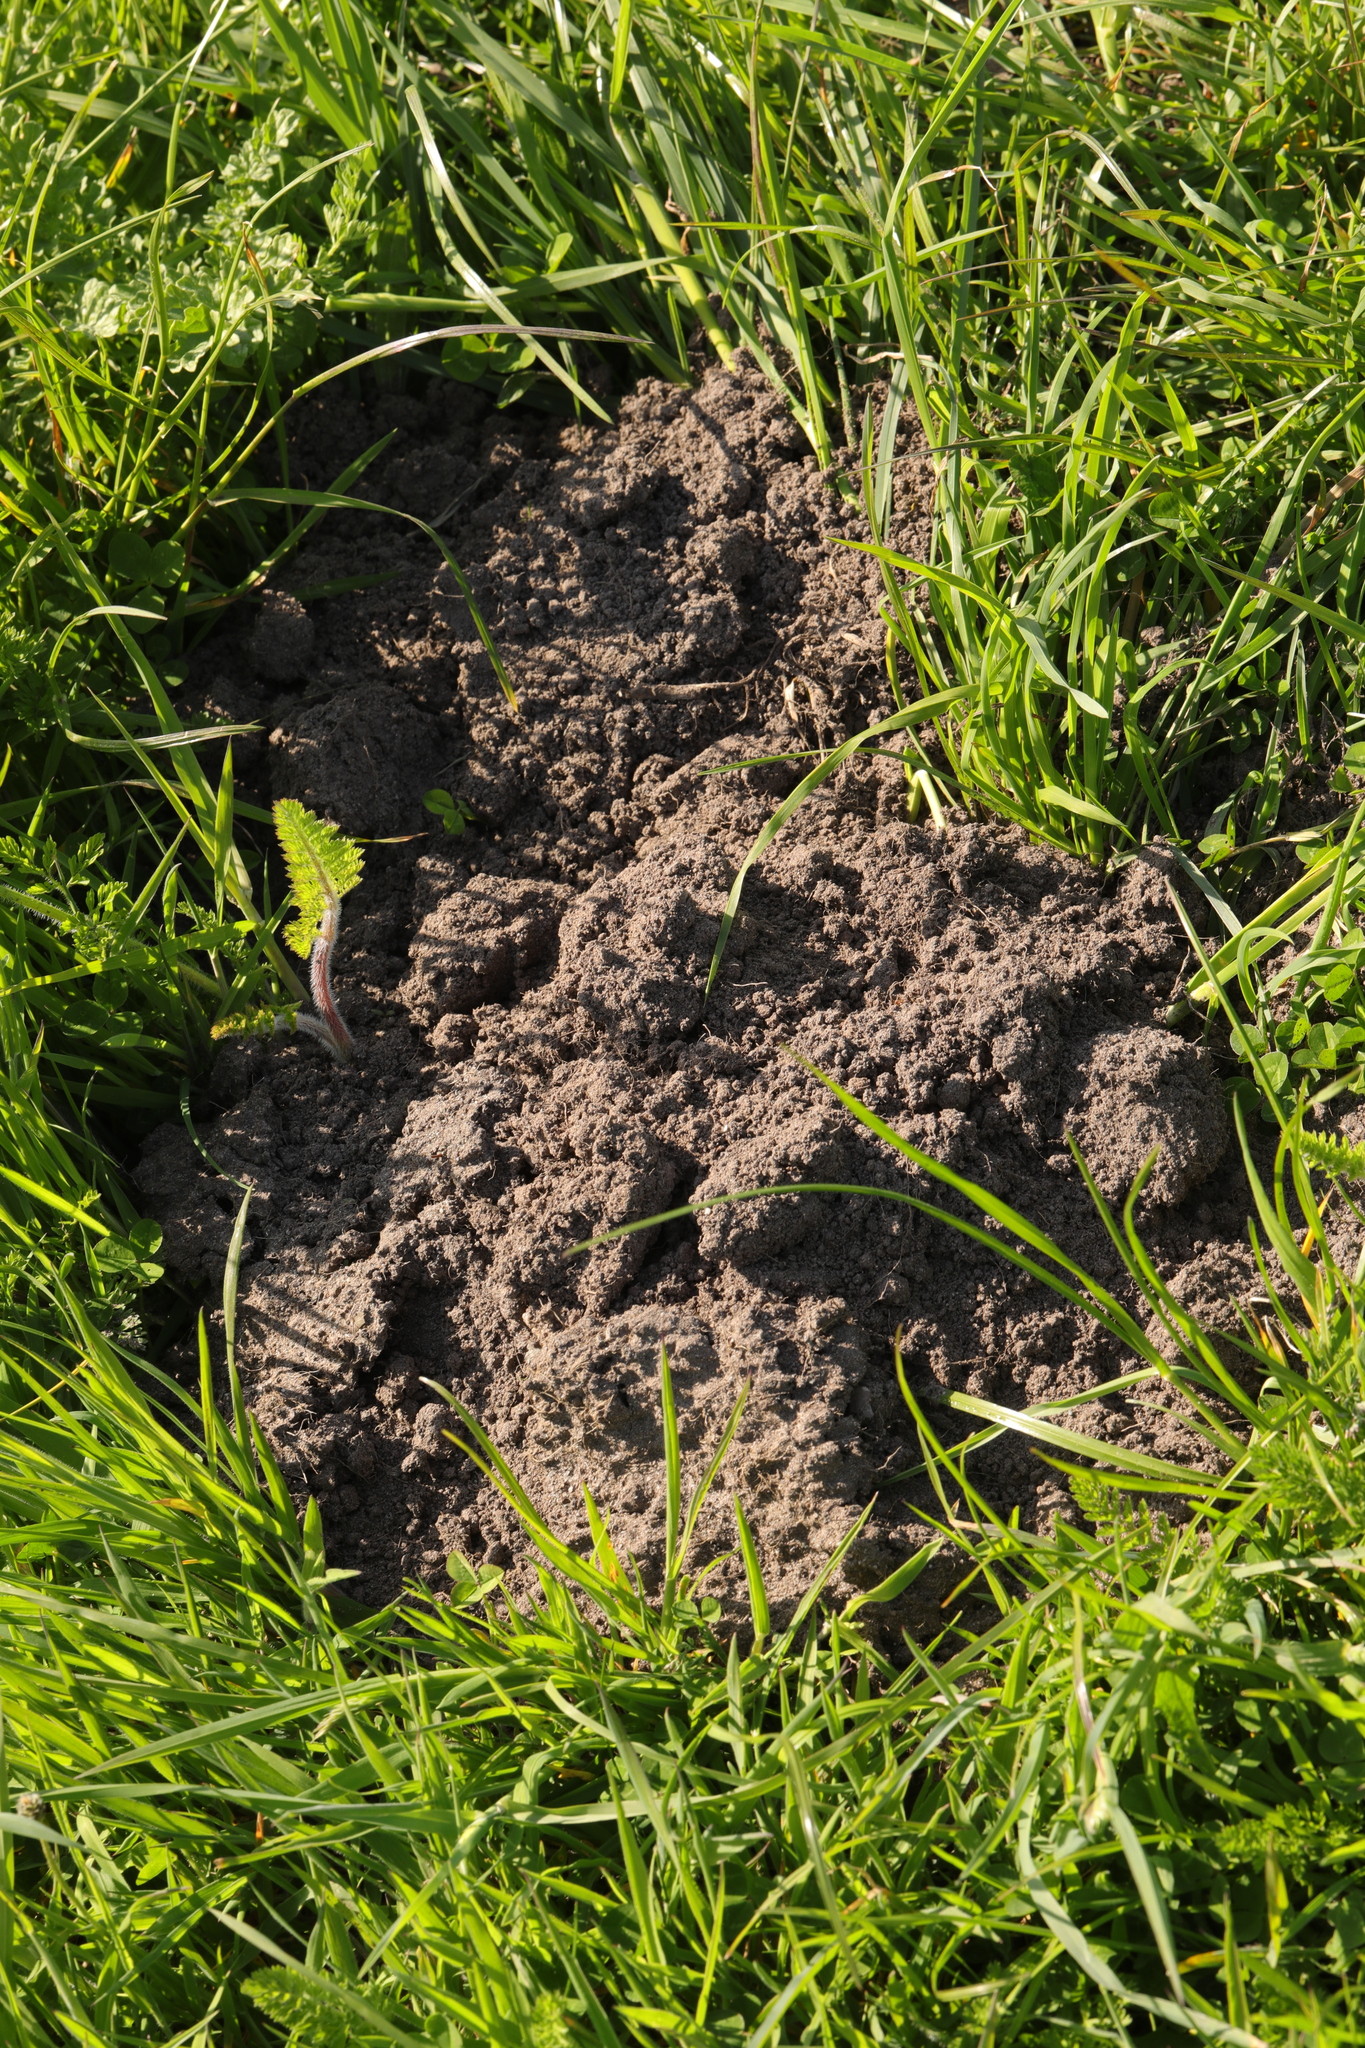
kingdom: Animalia
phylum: Chordata
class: Mammalia
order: Soricomorpha
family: Talpidae
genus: Talpa
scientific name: Talpa europaea
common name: European mole
